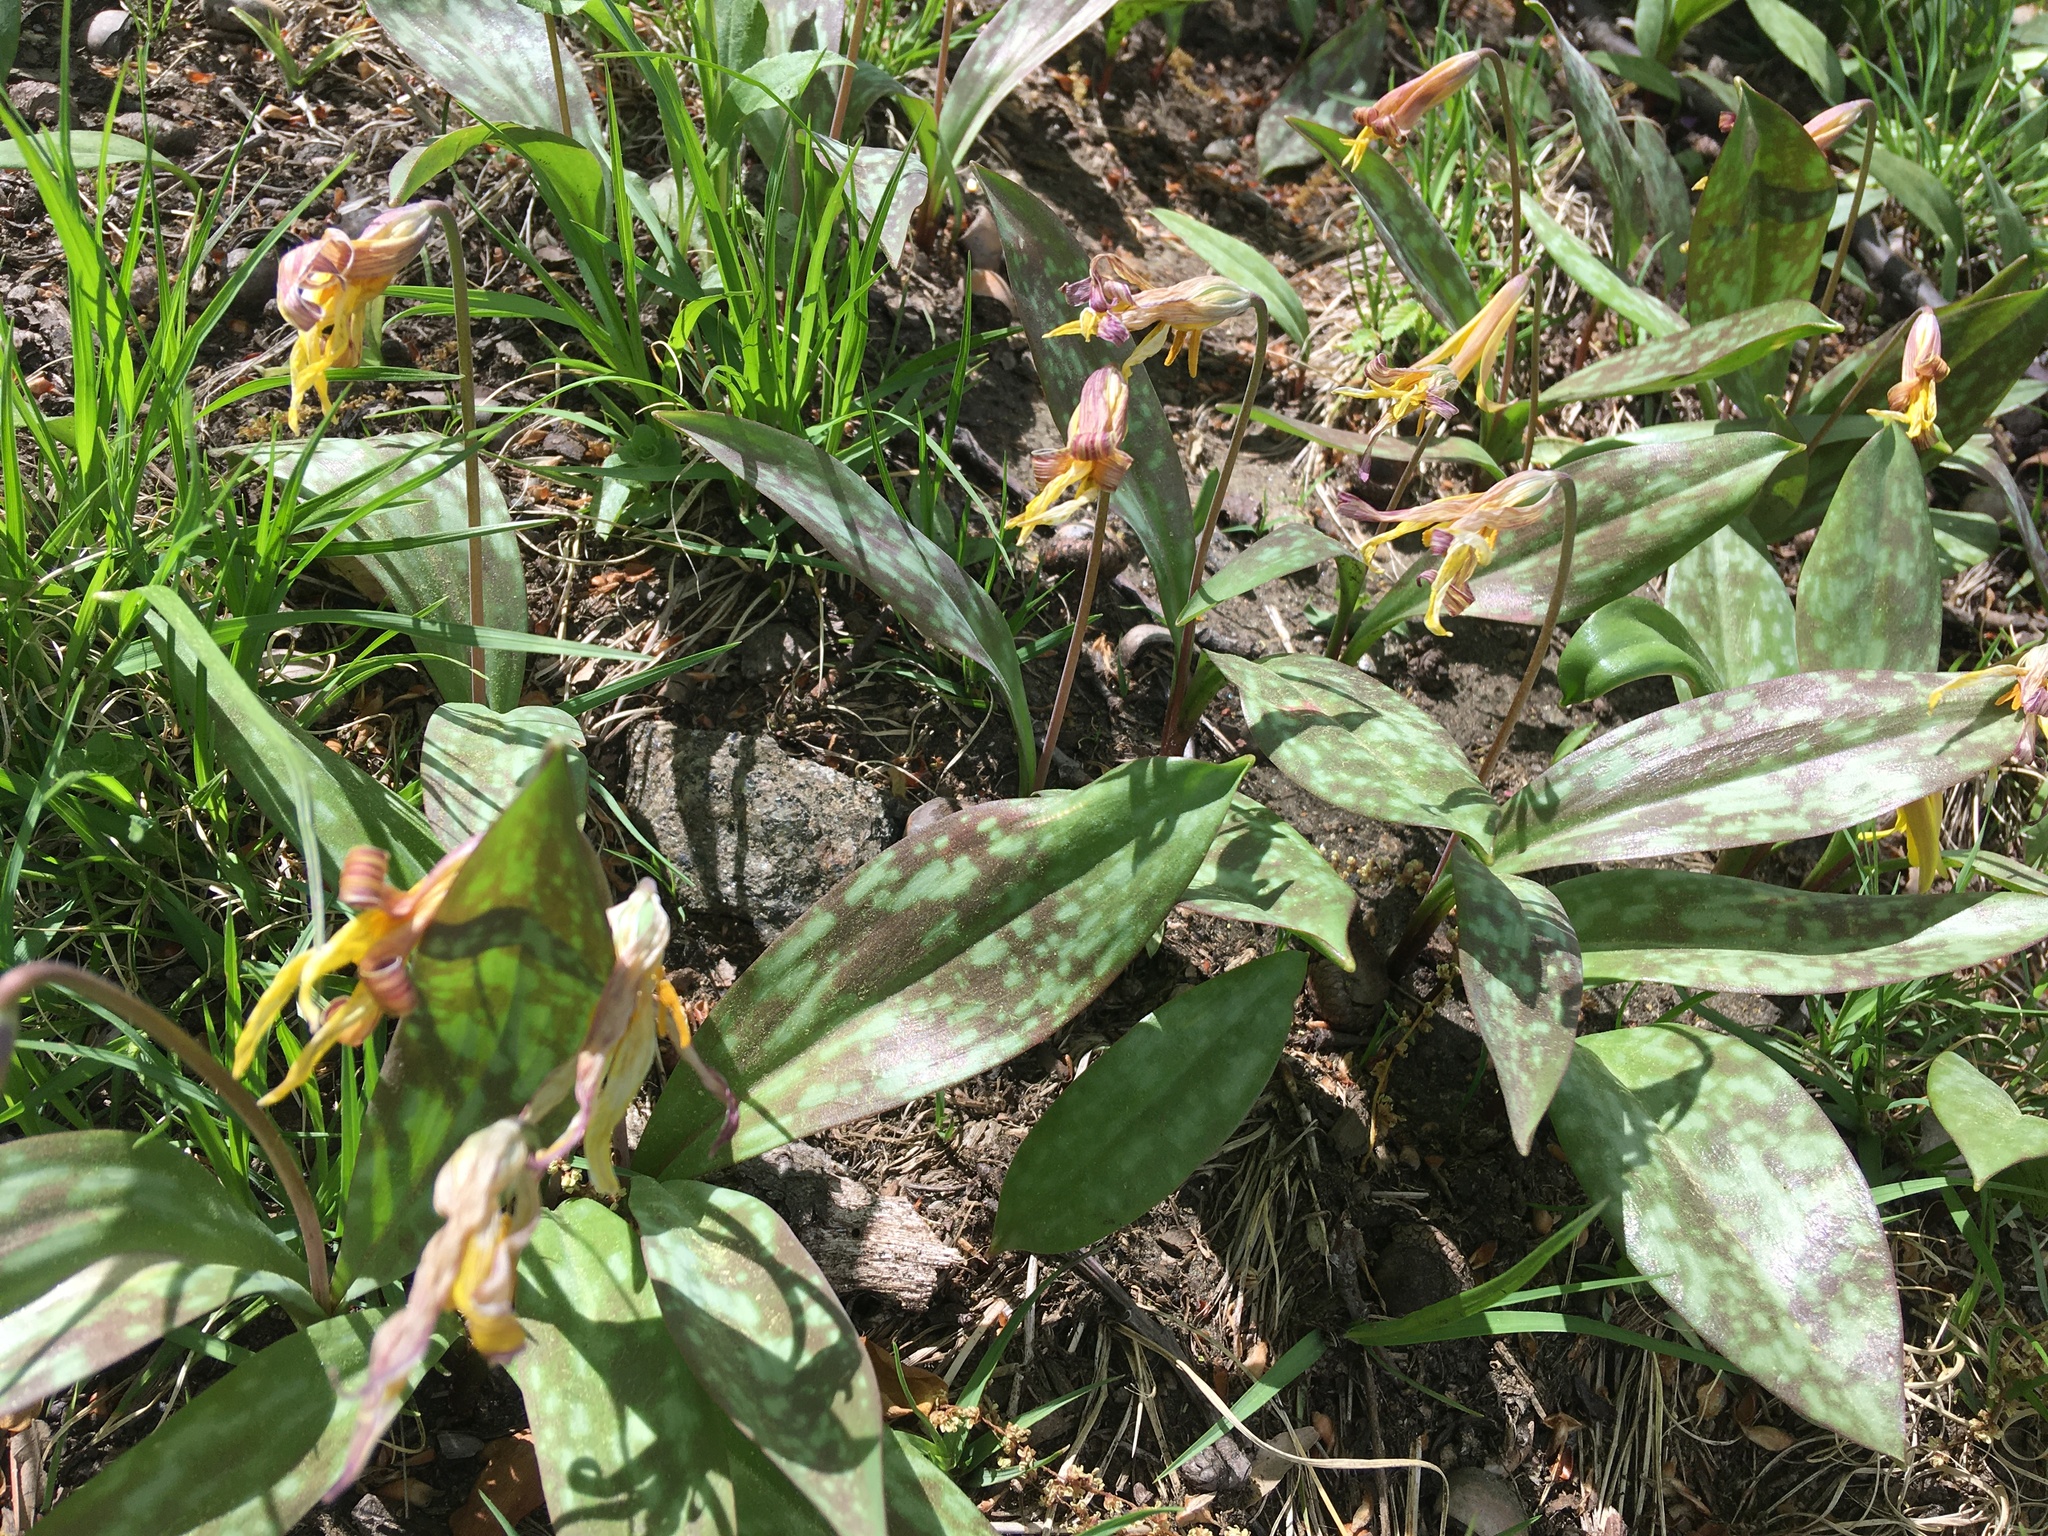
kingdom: Plantae
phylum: Tracheophyta
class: Liliopsida
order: Liliales
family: Liliaceae
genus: Erythronium
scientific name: Erythronium americanum
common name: Yellow adder's-tongue
